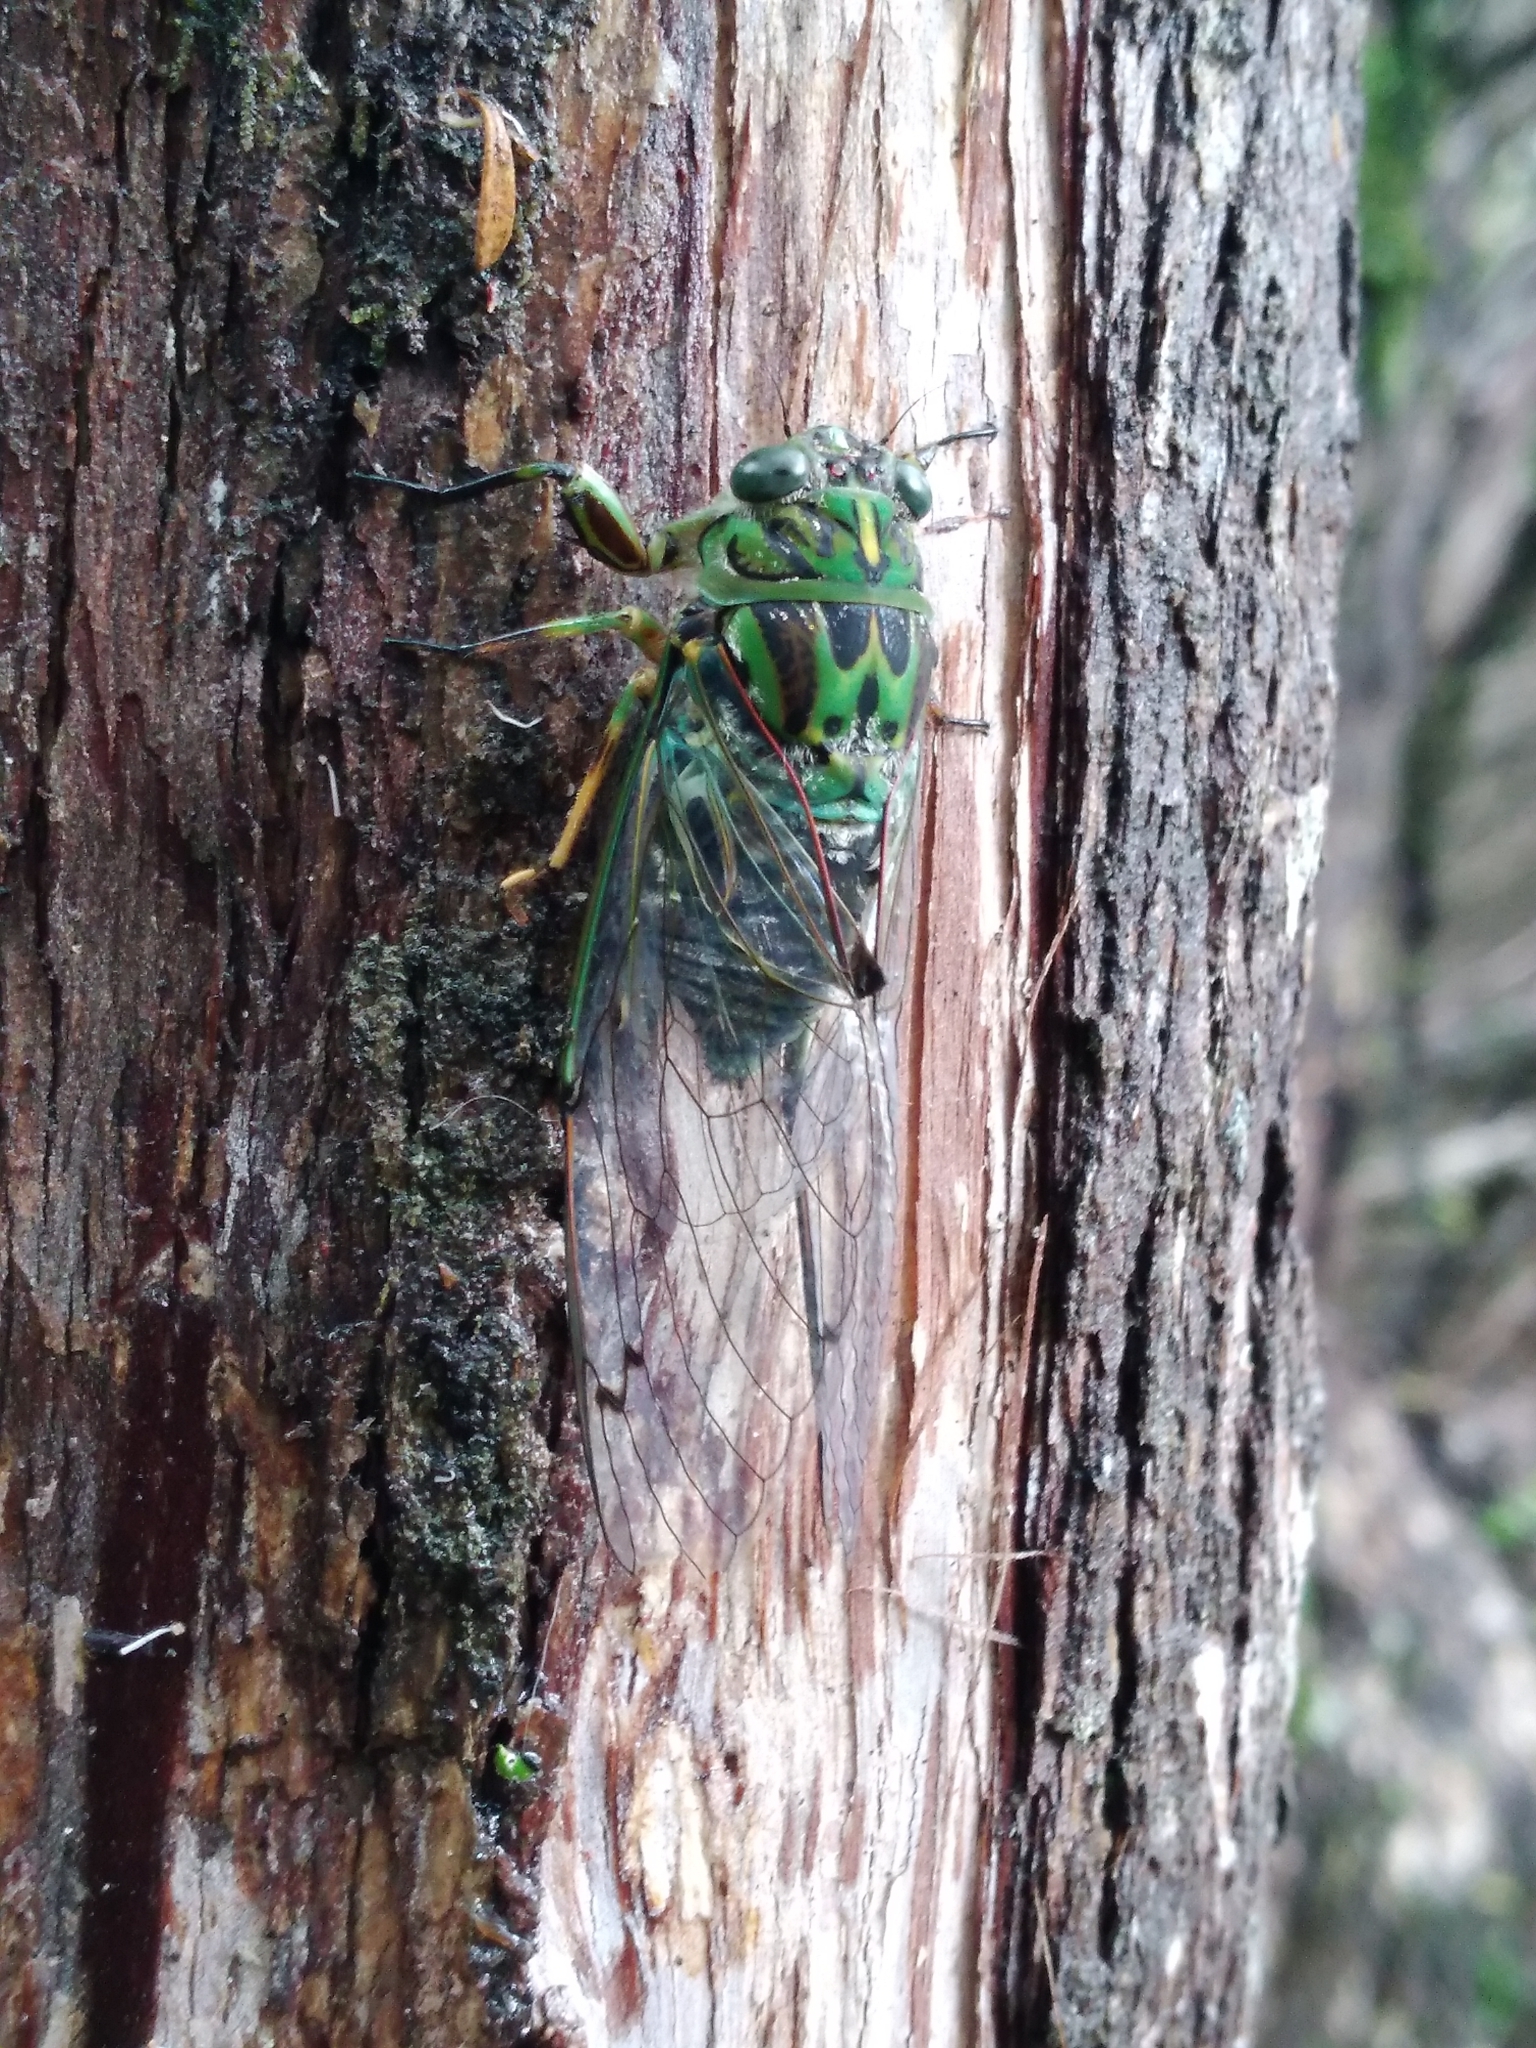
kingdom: Animalia
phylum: Arthropoda
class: Insecta
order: Hemiptera
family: Cicadidae
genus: Amphipsalta
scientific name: Amphipsalta zelandica
